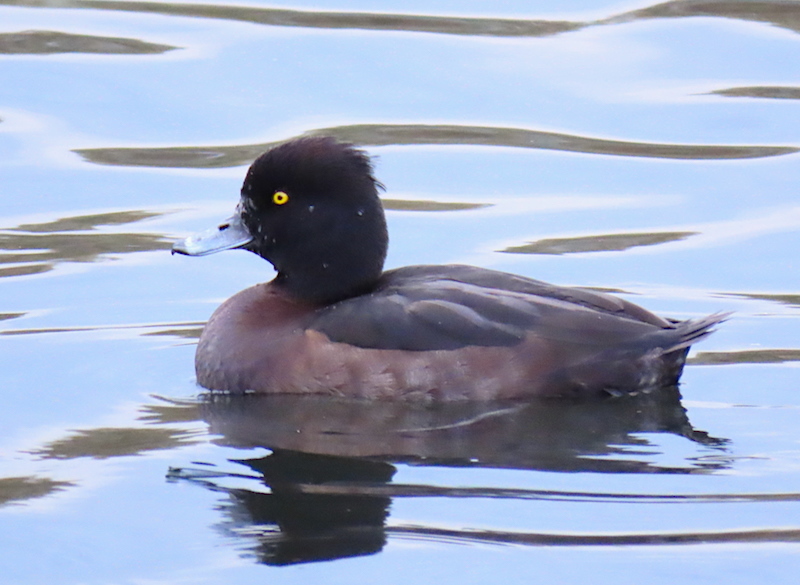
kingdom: Animalia
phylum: Chordata
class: Aves
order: Anseriformes
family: Anatidae
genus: Aythya
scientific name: Aythya fuligula
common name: Tufted duck
